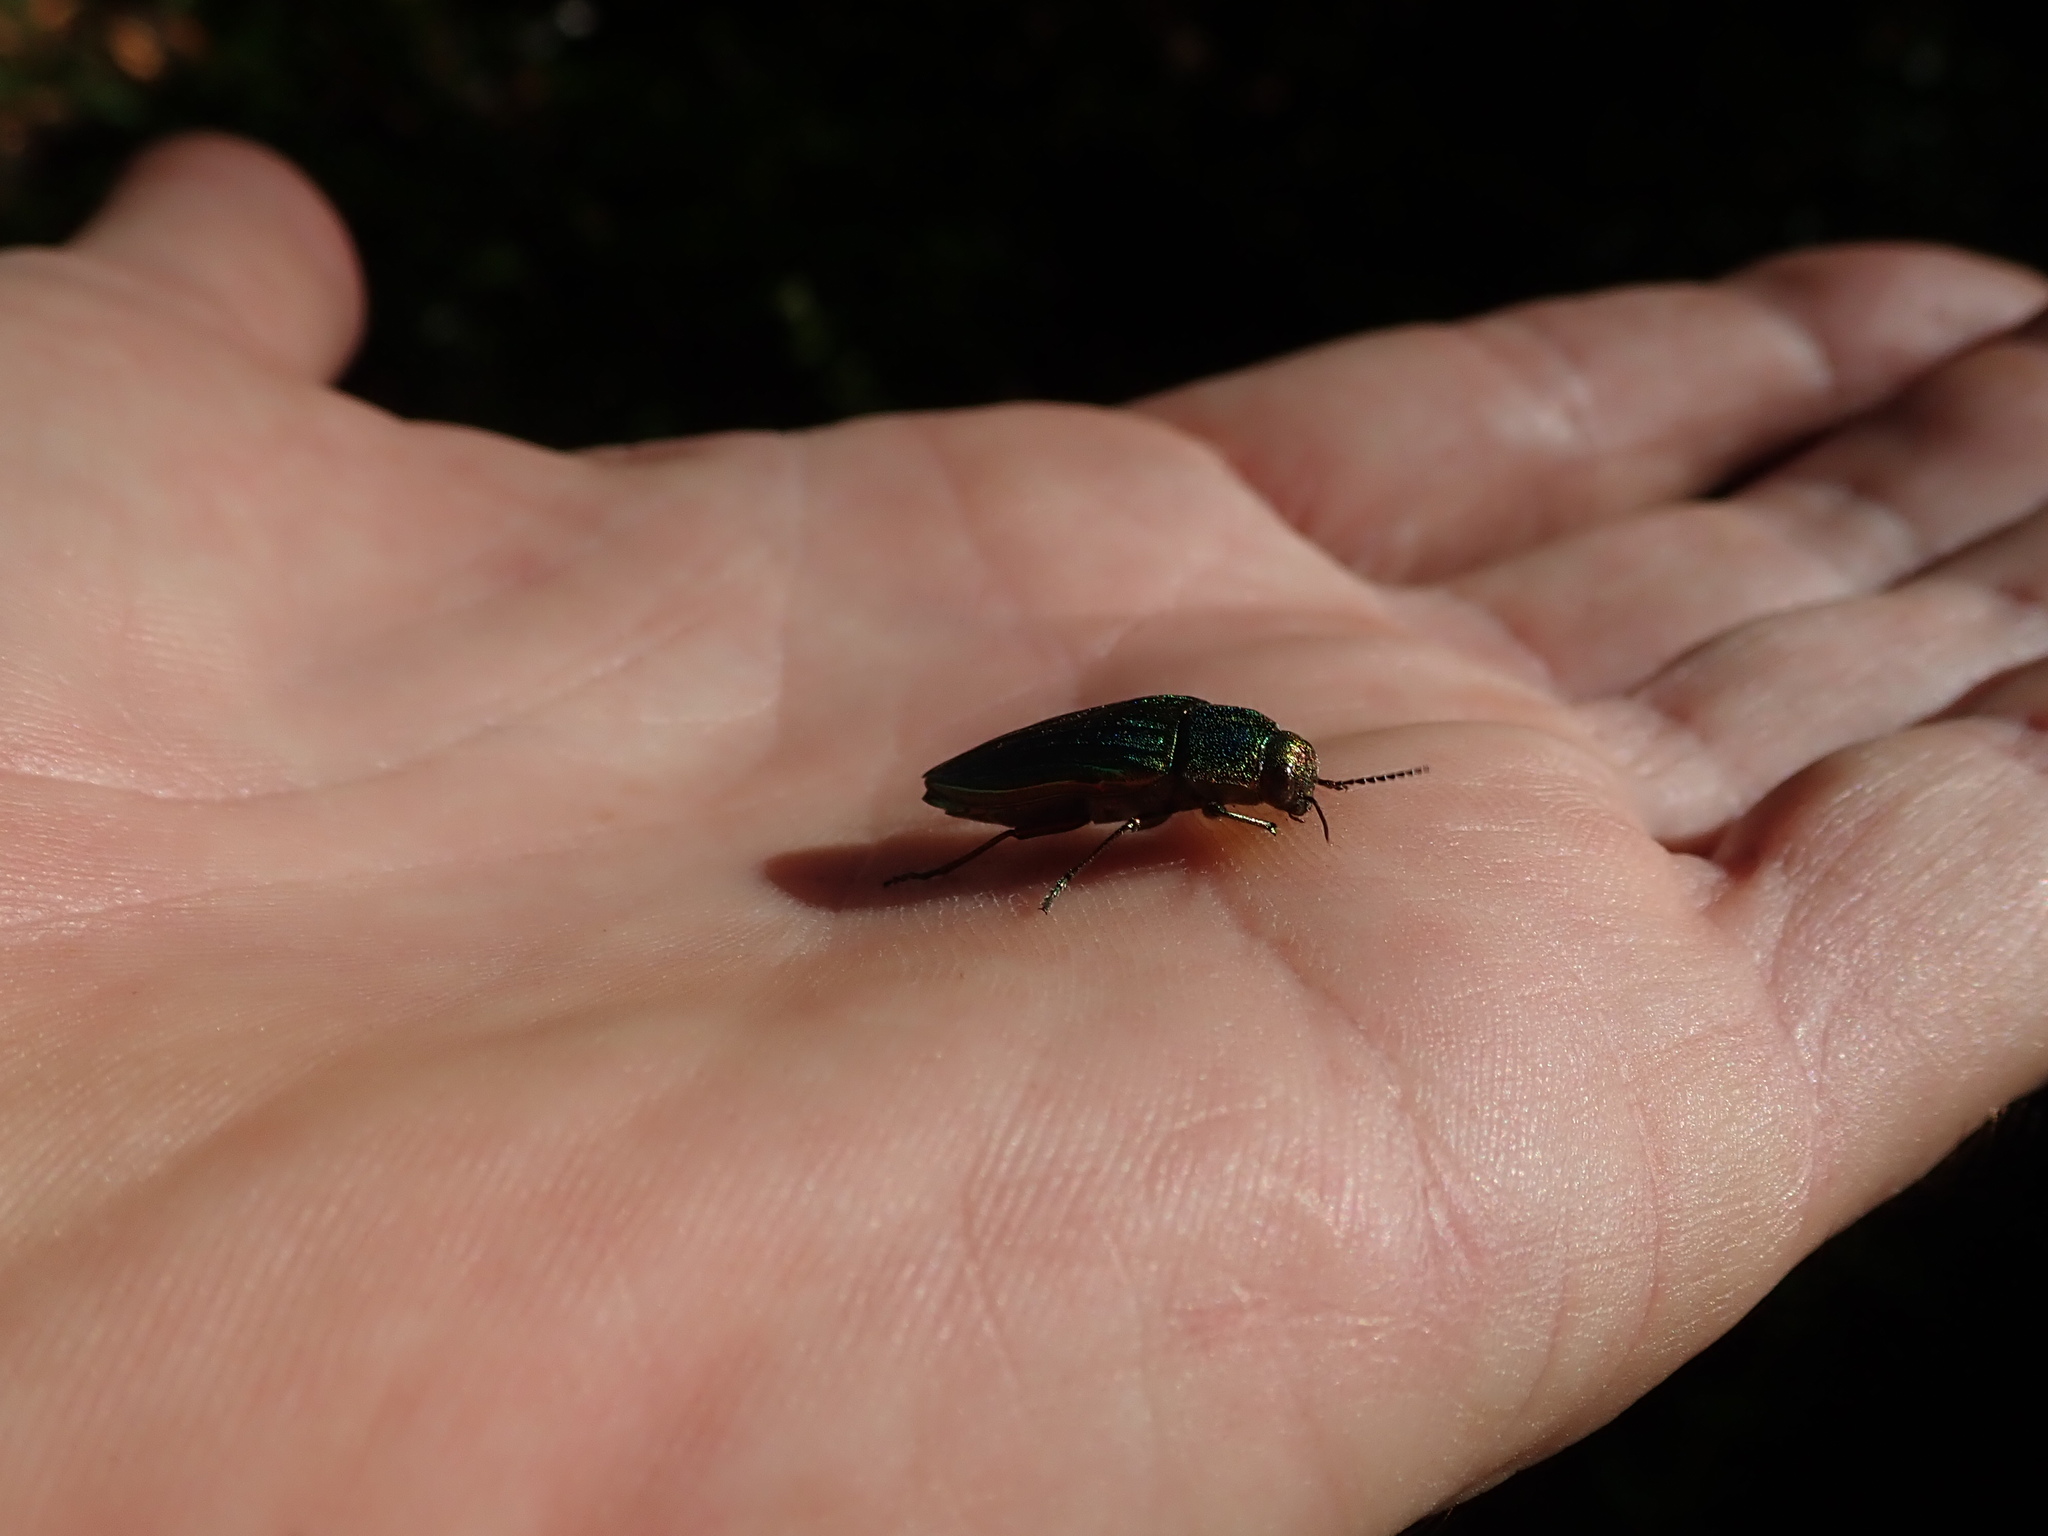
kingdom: Animalia
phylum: Arthropoda
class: Insecta
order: Coleoptera
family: Buprestidae
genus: Buprestis
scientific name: Buprestis aurulenta
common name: Golden buprestid
